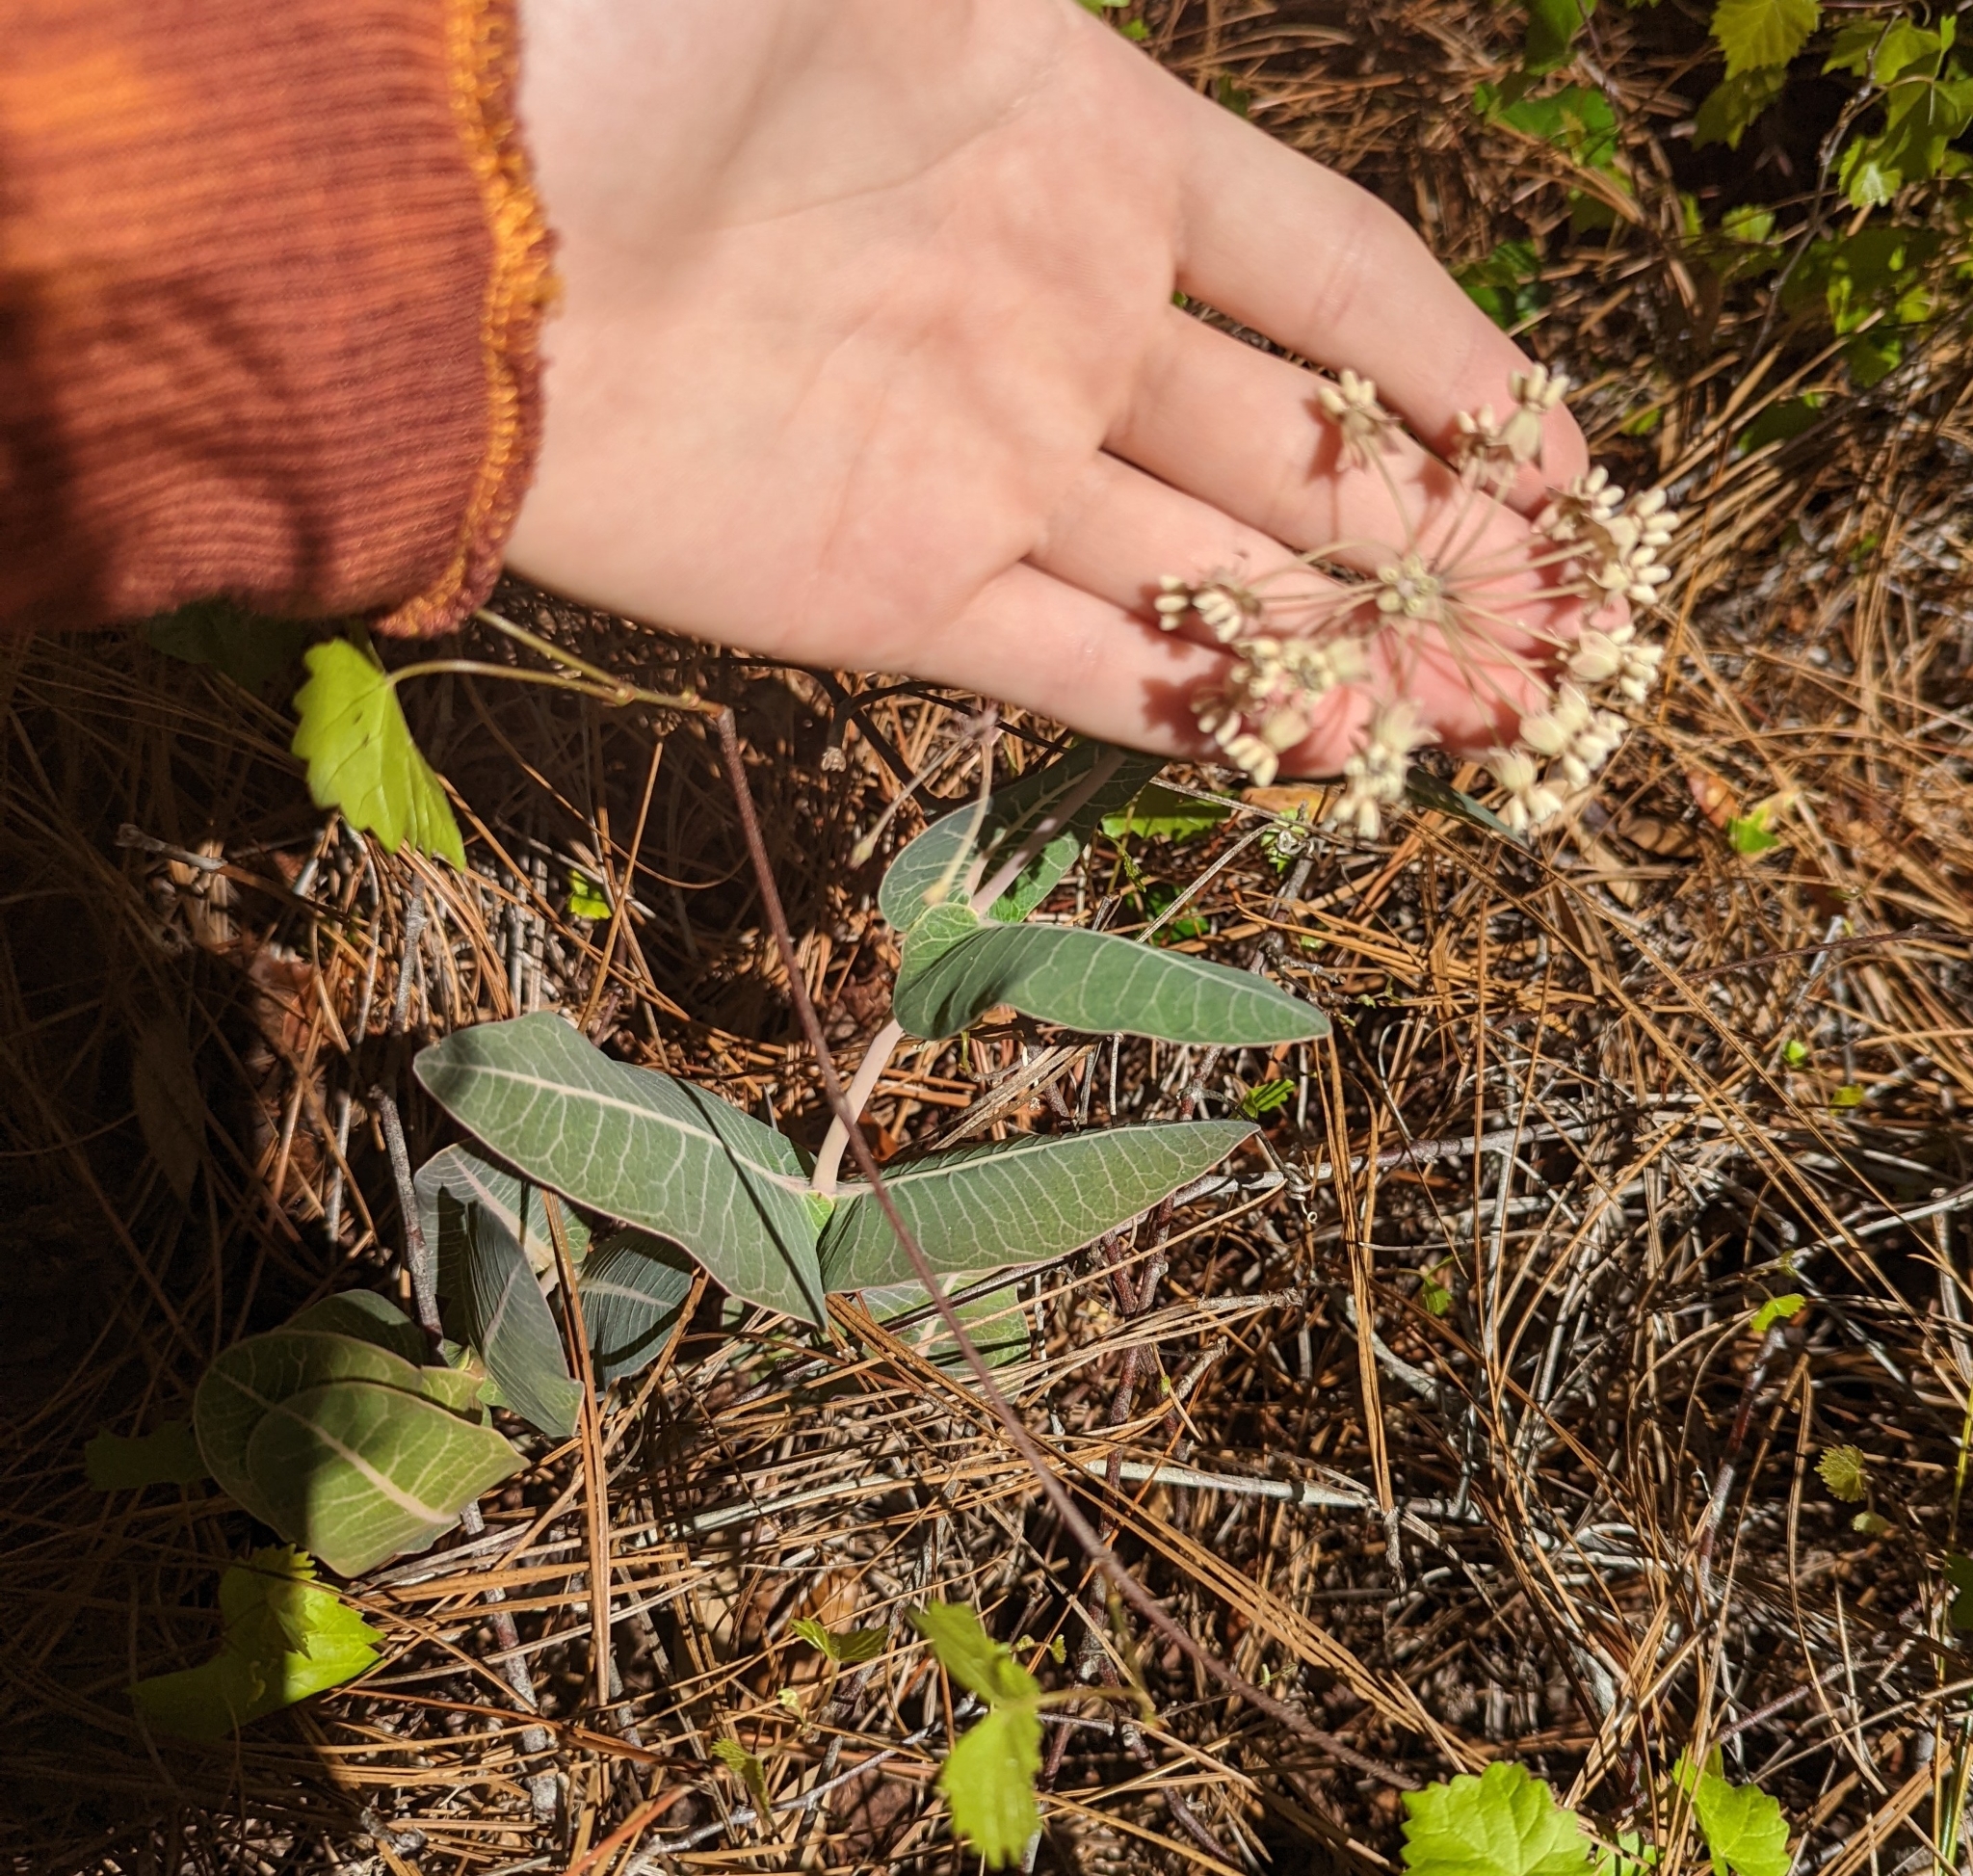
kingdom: Plantae
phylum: Tracheophyta
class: Magnoliopsida
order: Gentianales
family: Apocynaceae
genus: Asclepias
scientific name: Asclepias humistrata
